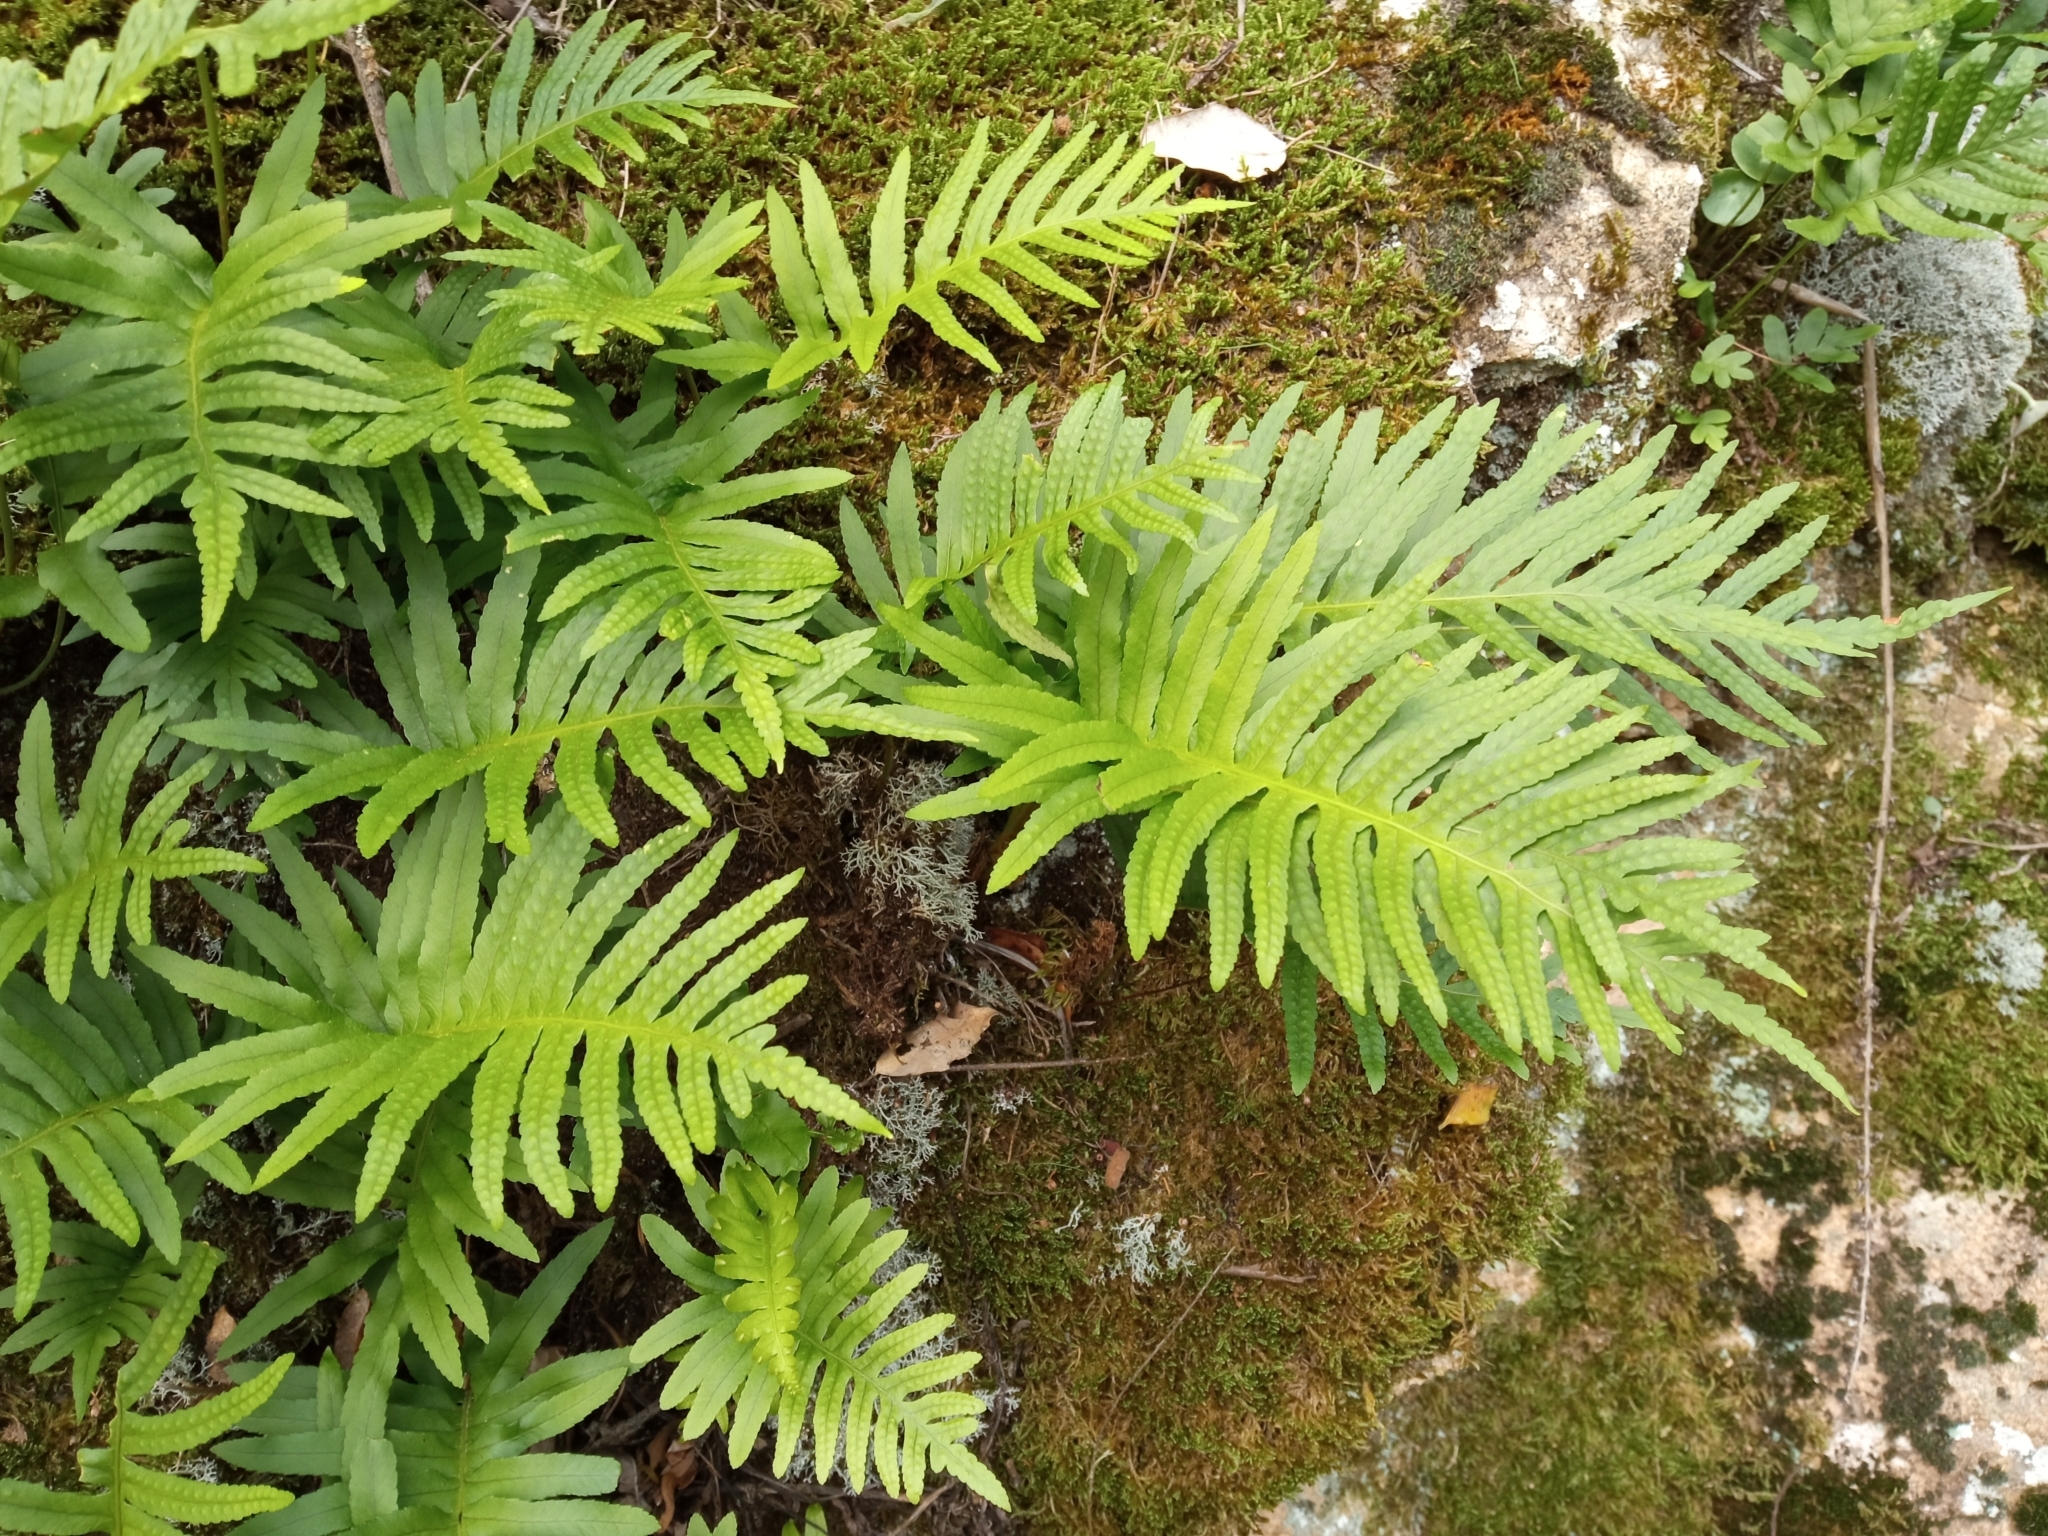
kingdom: Plantae
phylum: Tracheophyta
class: Polypodiopsida
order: Polypodiales
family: Polypodiaceae
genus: Polypodium
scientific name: Polypodium cambricum
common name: Southern polypody
